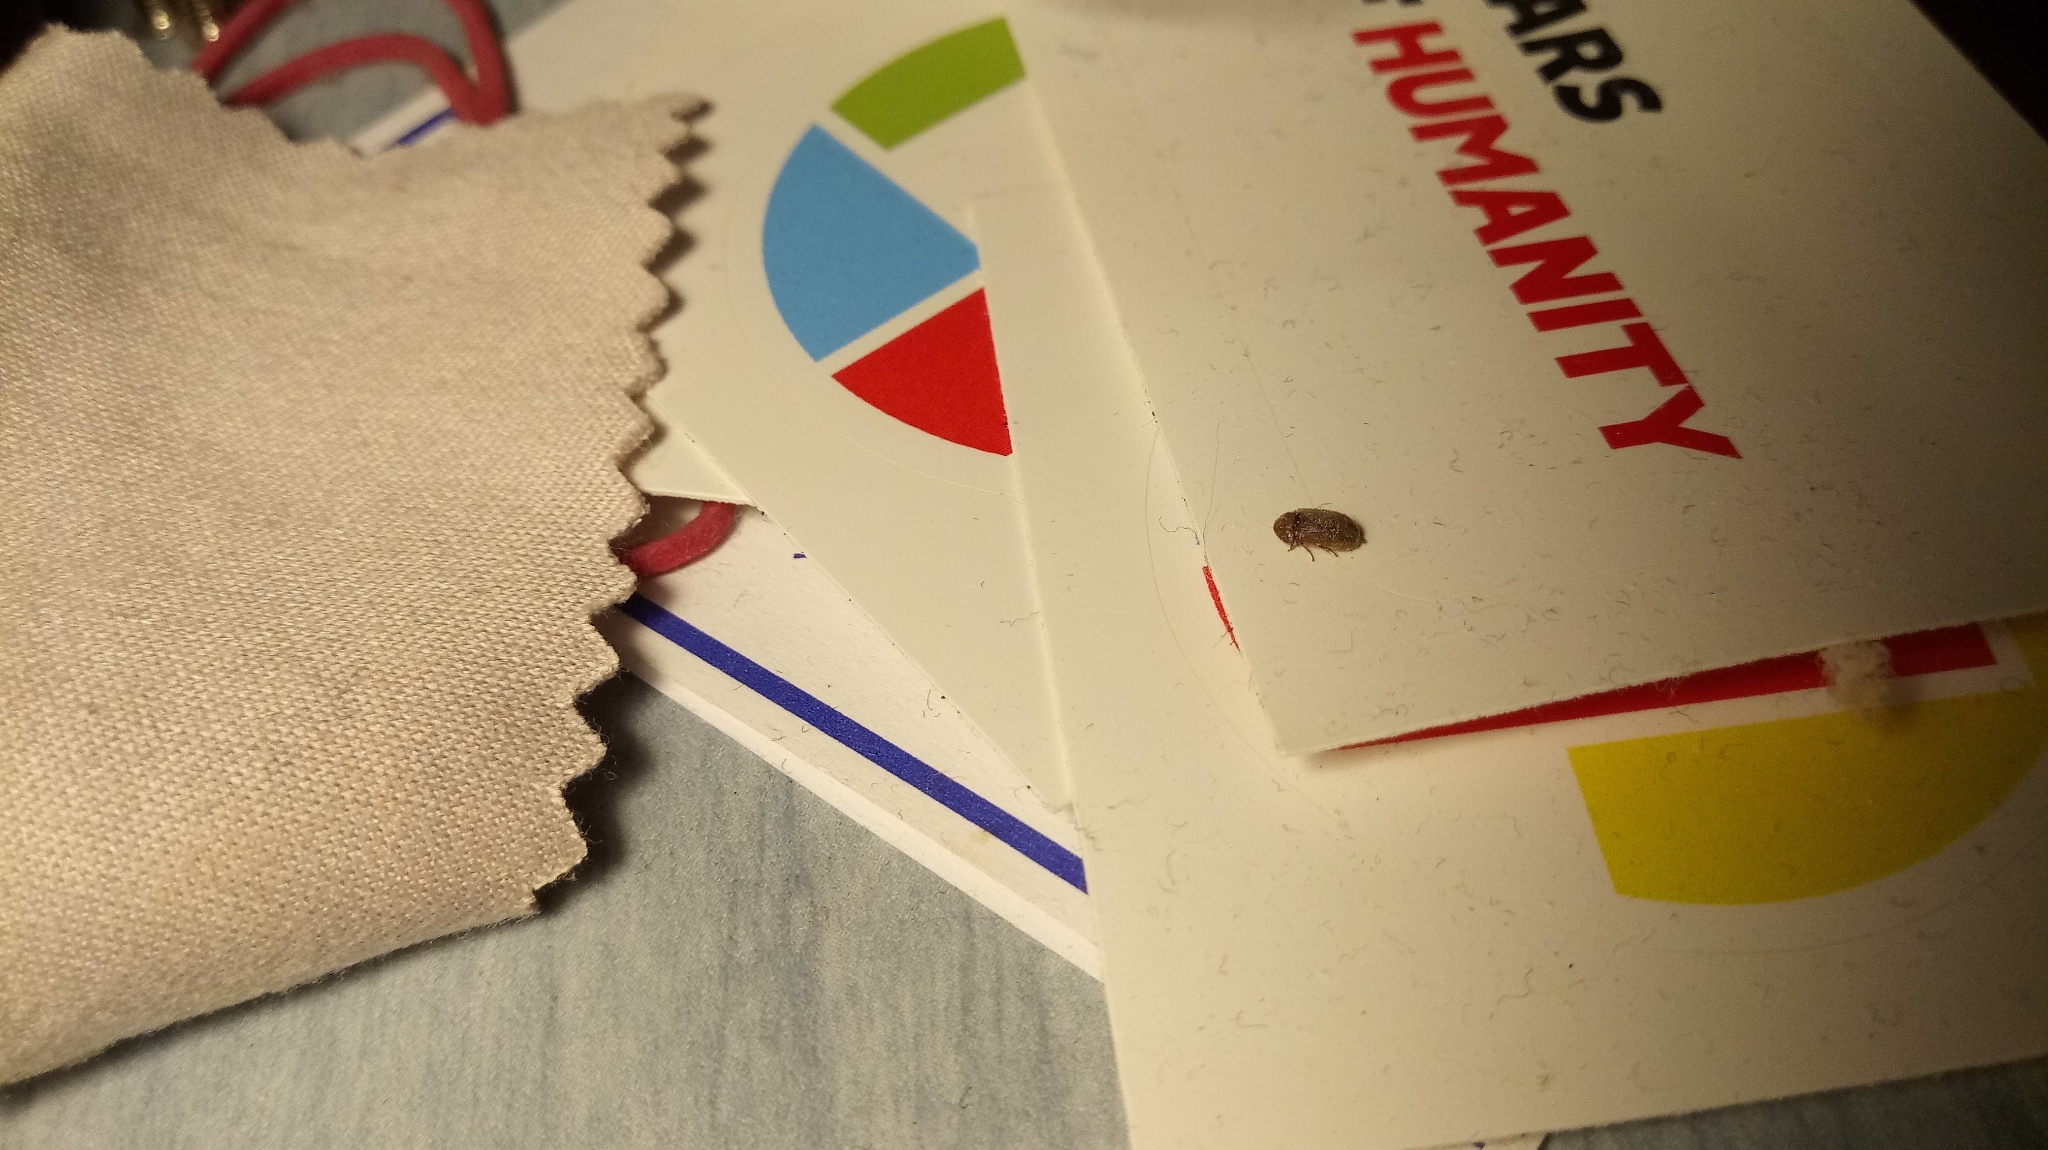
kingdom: Animalia
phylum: Arthropoda
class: Insecta
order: Coleoptera
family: Dermestidae
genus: Anthrenus
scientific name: Anthrenus verbasci
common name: Varied carpet beetle
